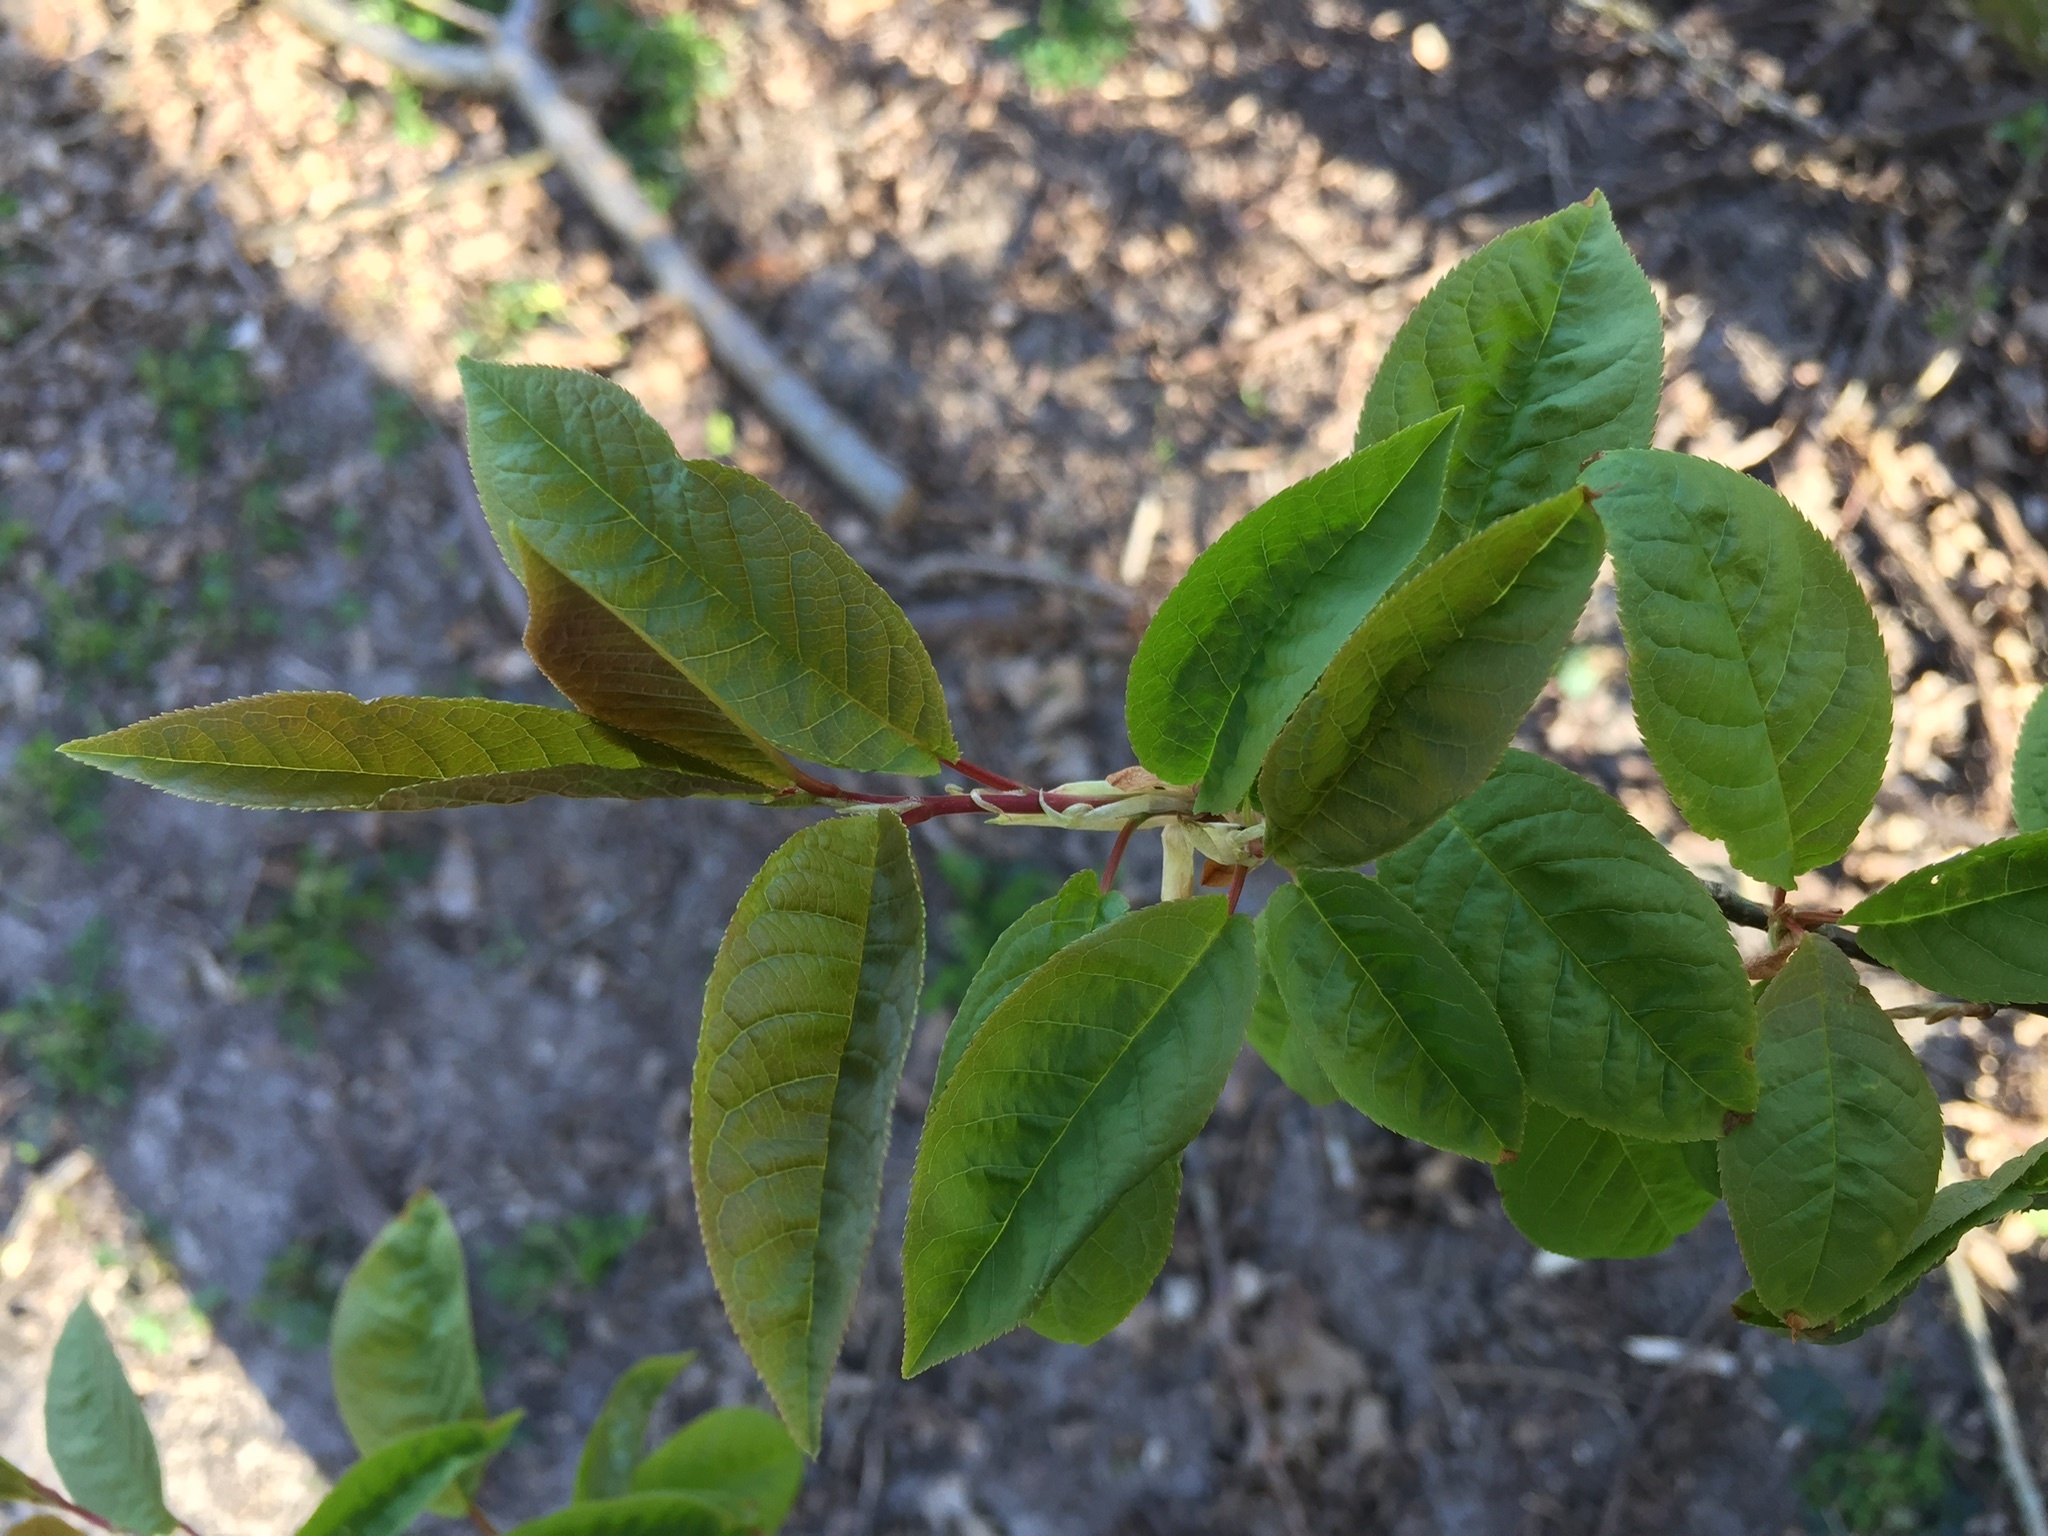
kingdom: Plantae
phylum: Tracheophyta
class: Magnoliopsida
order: Rosales
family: Rosaceae
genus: Prunus
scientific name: Prunus padus
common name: Bird cherry
